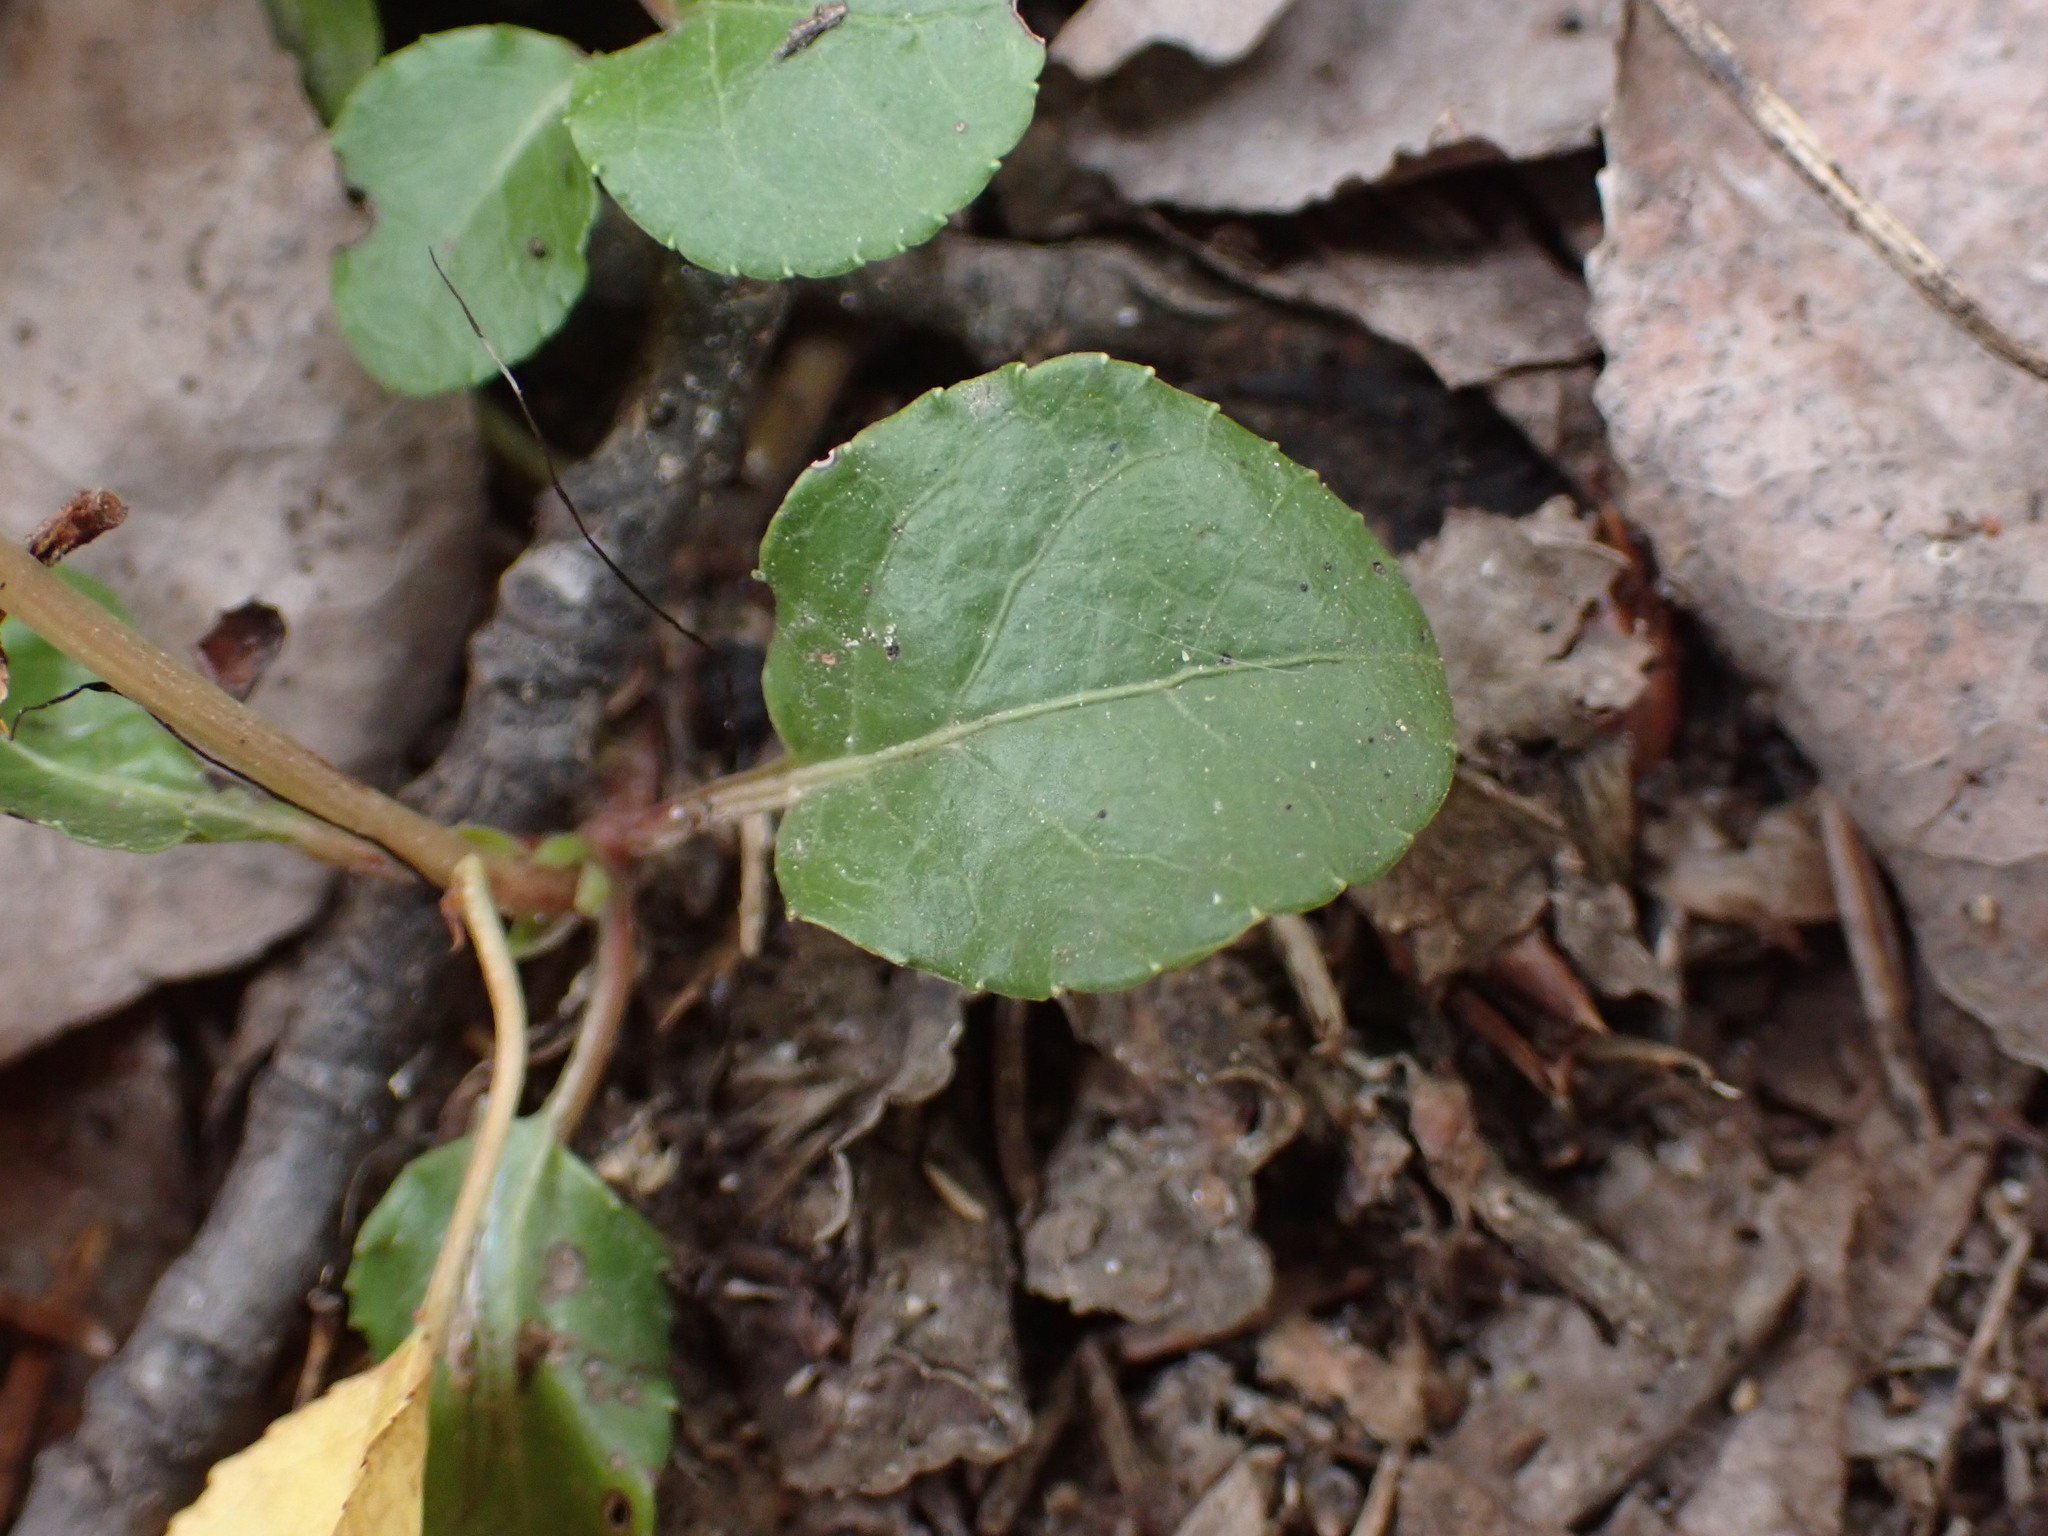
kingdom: Plantae
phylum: Tracheophyta
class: Magnoliopsida
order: Ericales
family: Ericaceae
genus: Orthilia
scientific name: Orthilia secunda
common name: One-sided orthilia
